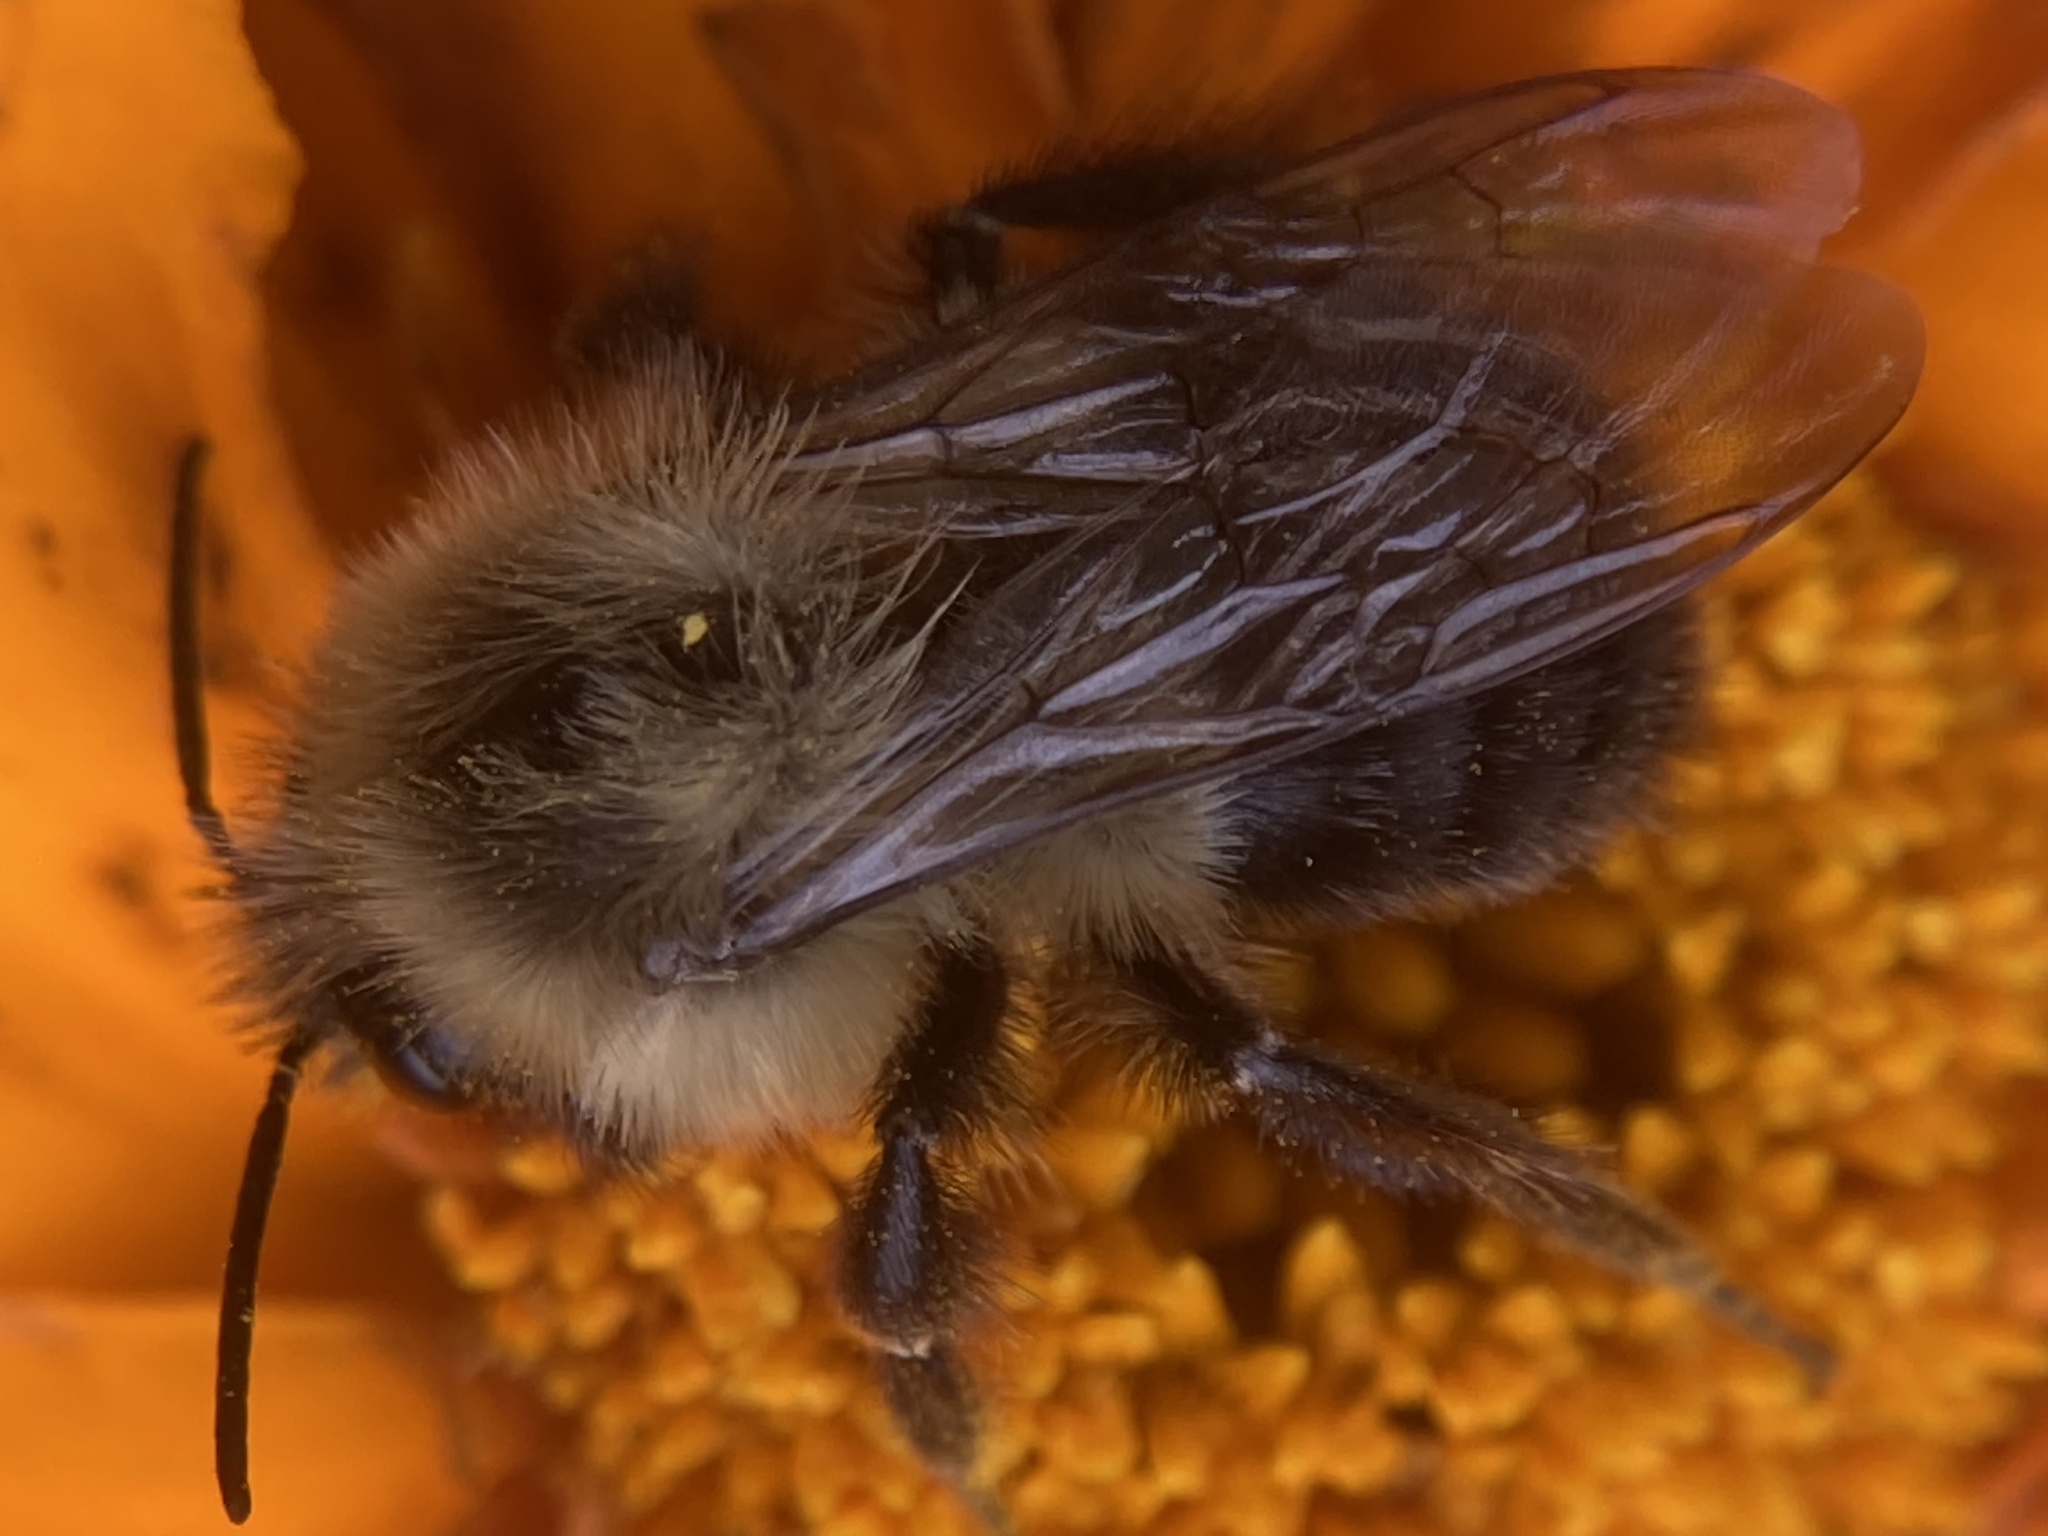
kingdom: Animalia
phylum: Arthropoda
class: Insecta
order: Hymenoptera
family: Apidae
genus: Bombus
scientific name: Bombus impatiens
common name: Common eastern bumble bee
